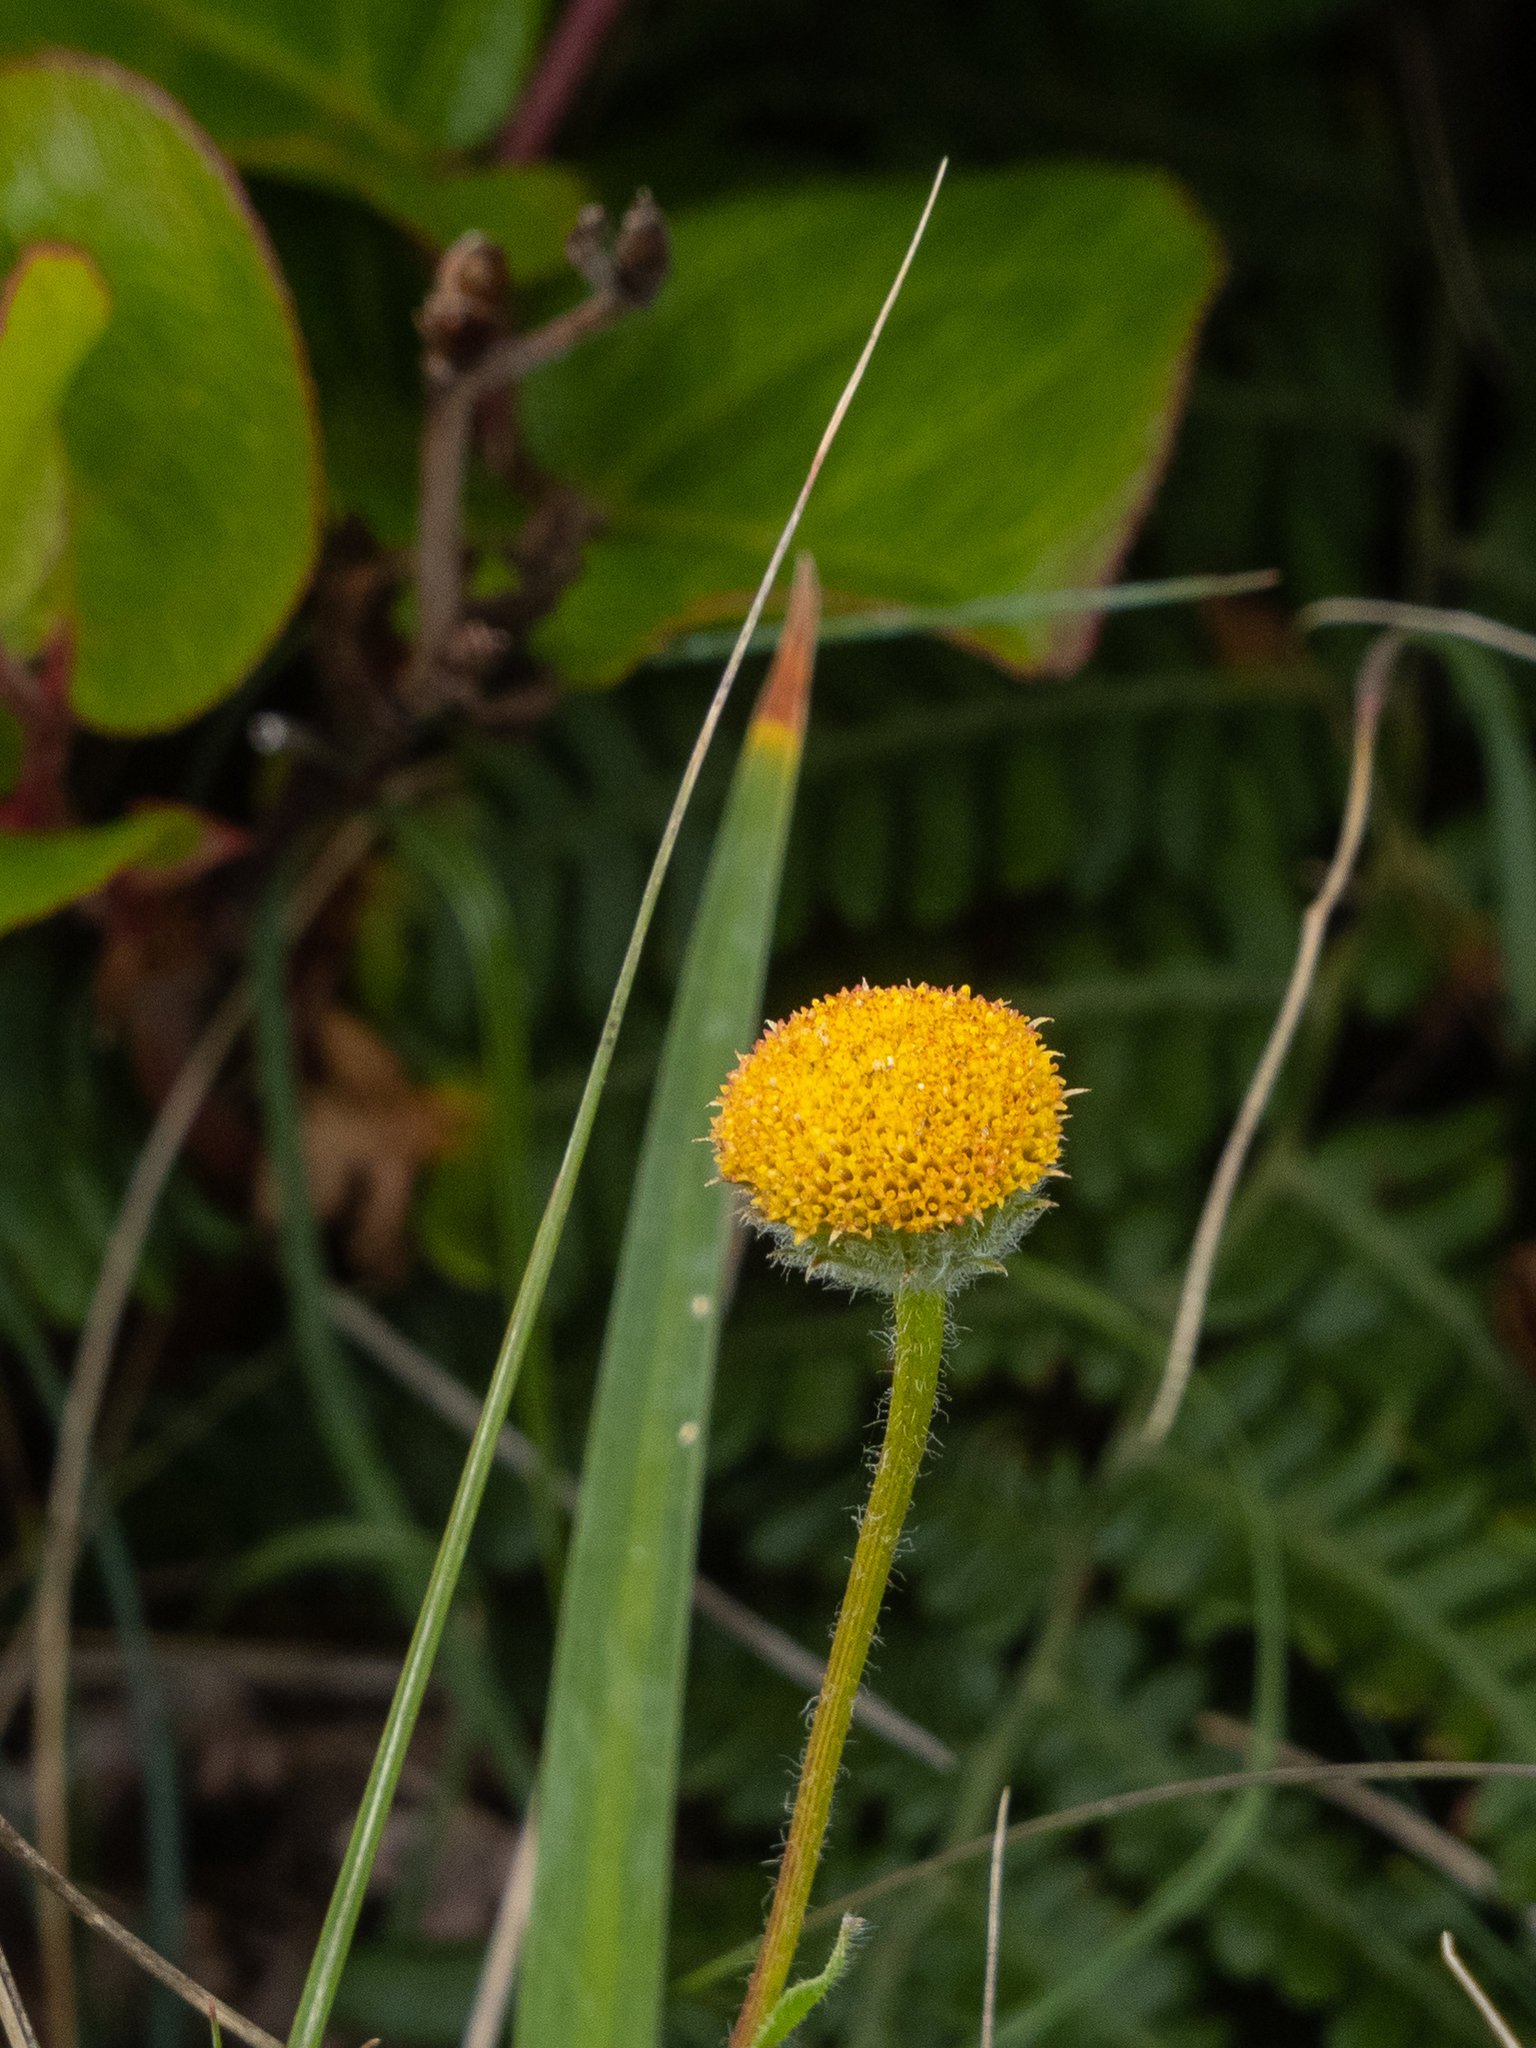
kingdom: Plantae
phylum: Tracheophyta
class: Magnoliopsida
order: Asterales
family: Asteraceae
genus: Erigeron
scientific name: Erigeron supplex
